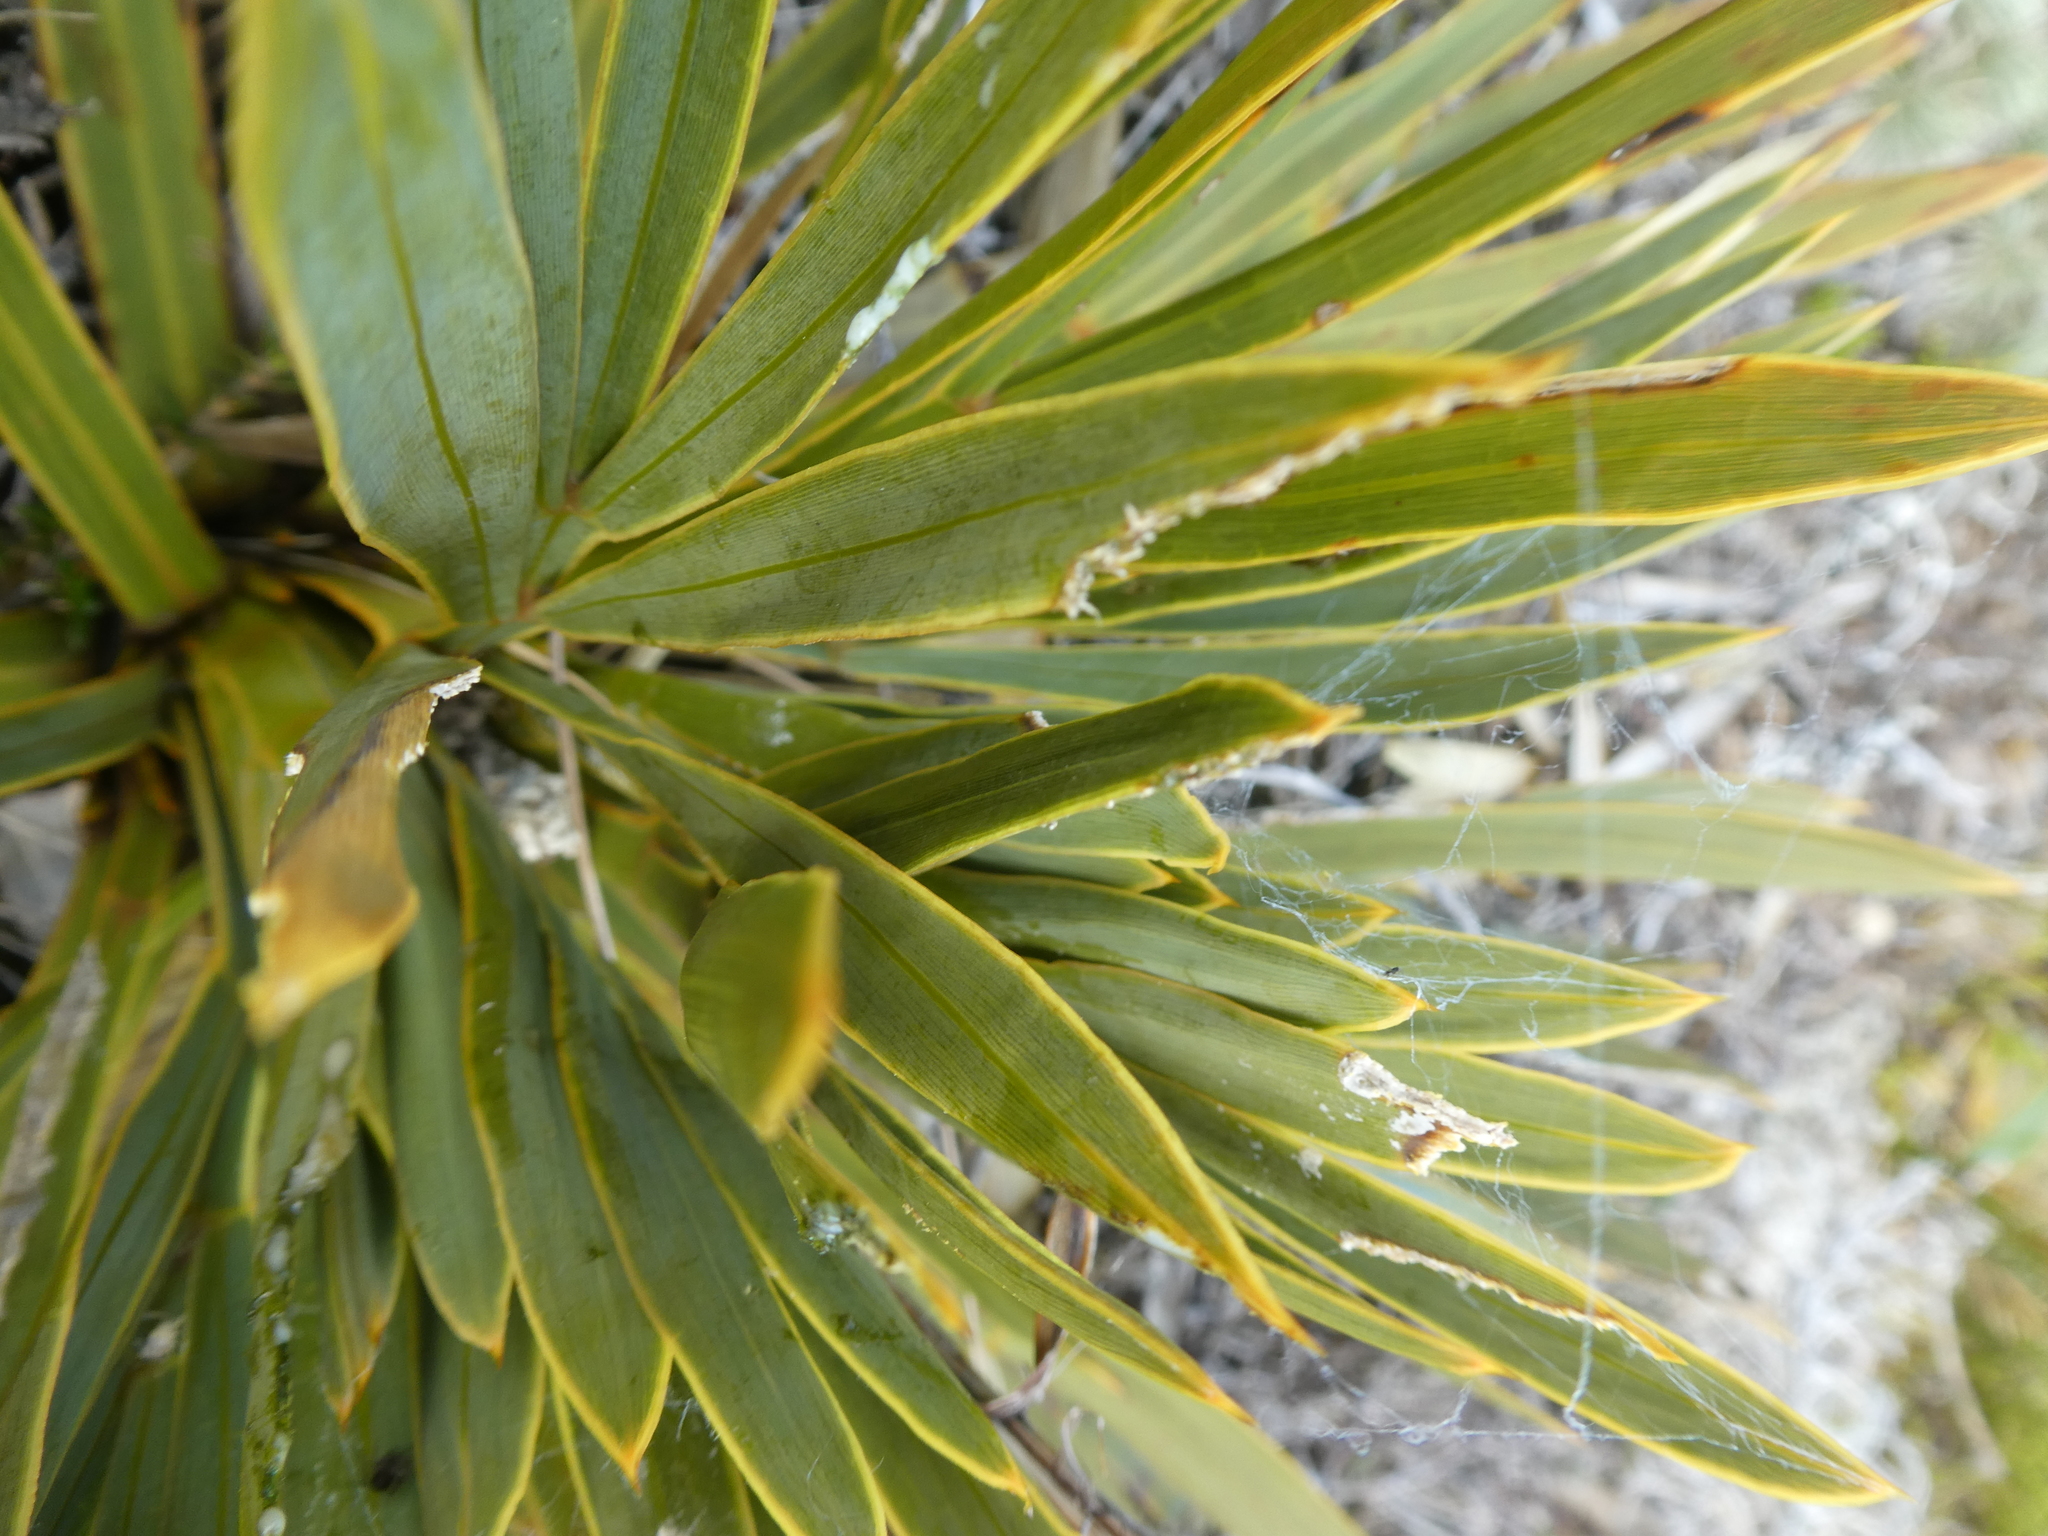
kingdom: Plantae
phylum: Tracheophyta
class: Magnoliopsida
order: Apiales
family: Apiaceae
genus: Aciphylla
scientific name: Aciphylla ferox
